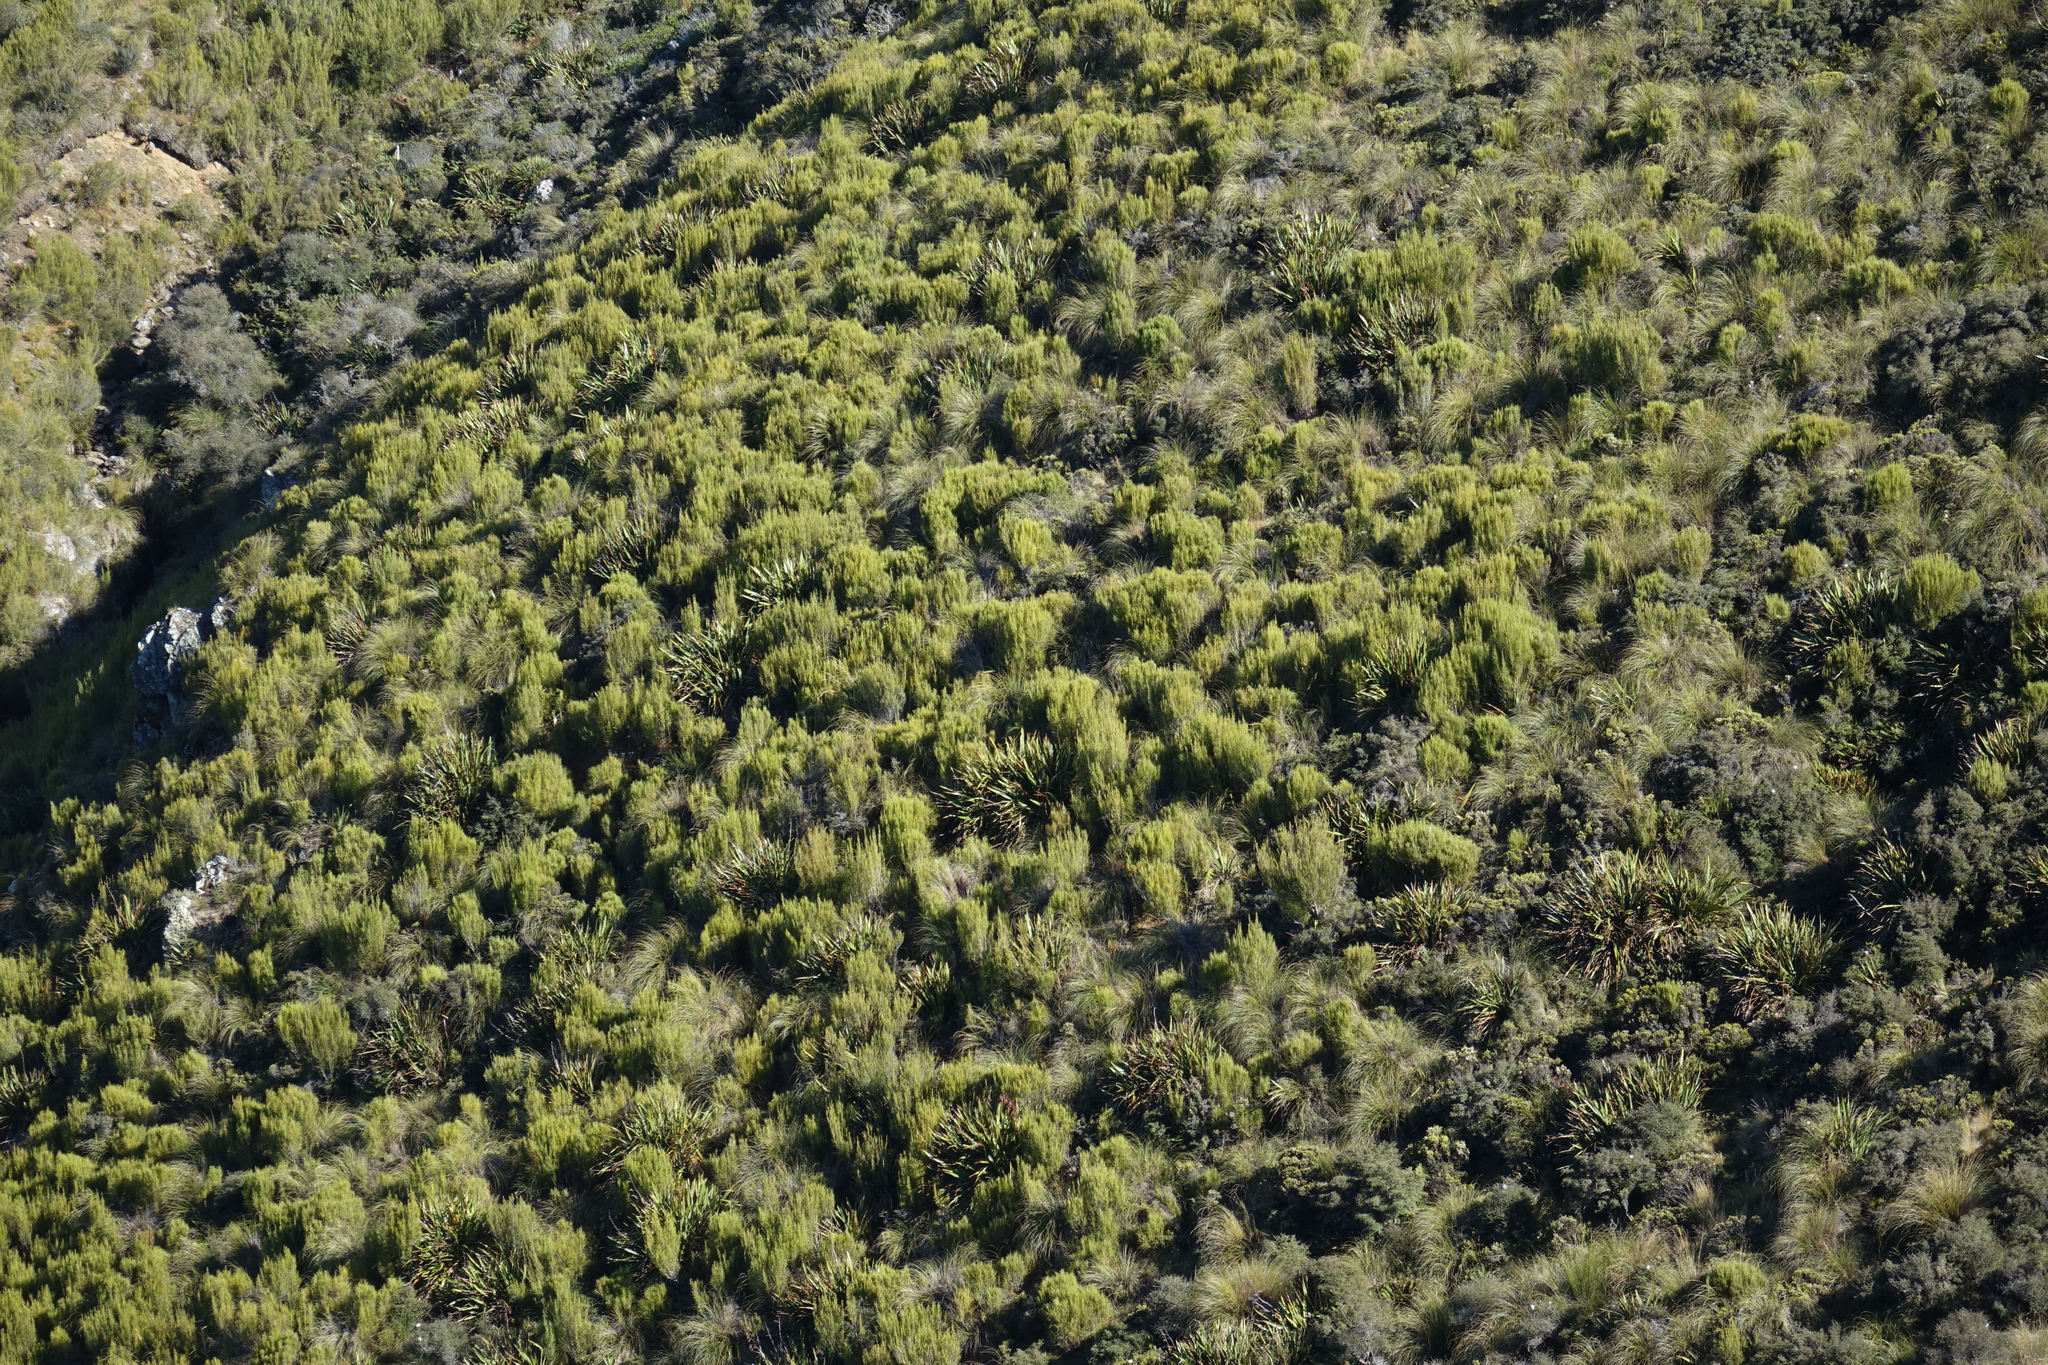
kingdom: Plantae
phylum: Tracheophyta
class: Magnoliopsida
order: Ericales
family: Ericaceae
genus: Dracophyllum
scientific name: Dracophyllum longifolium
